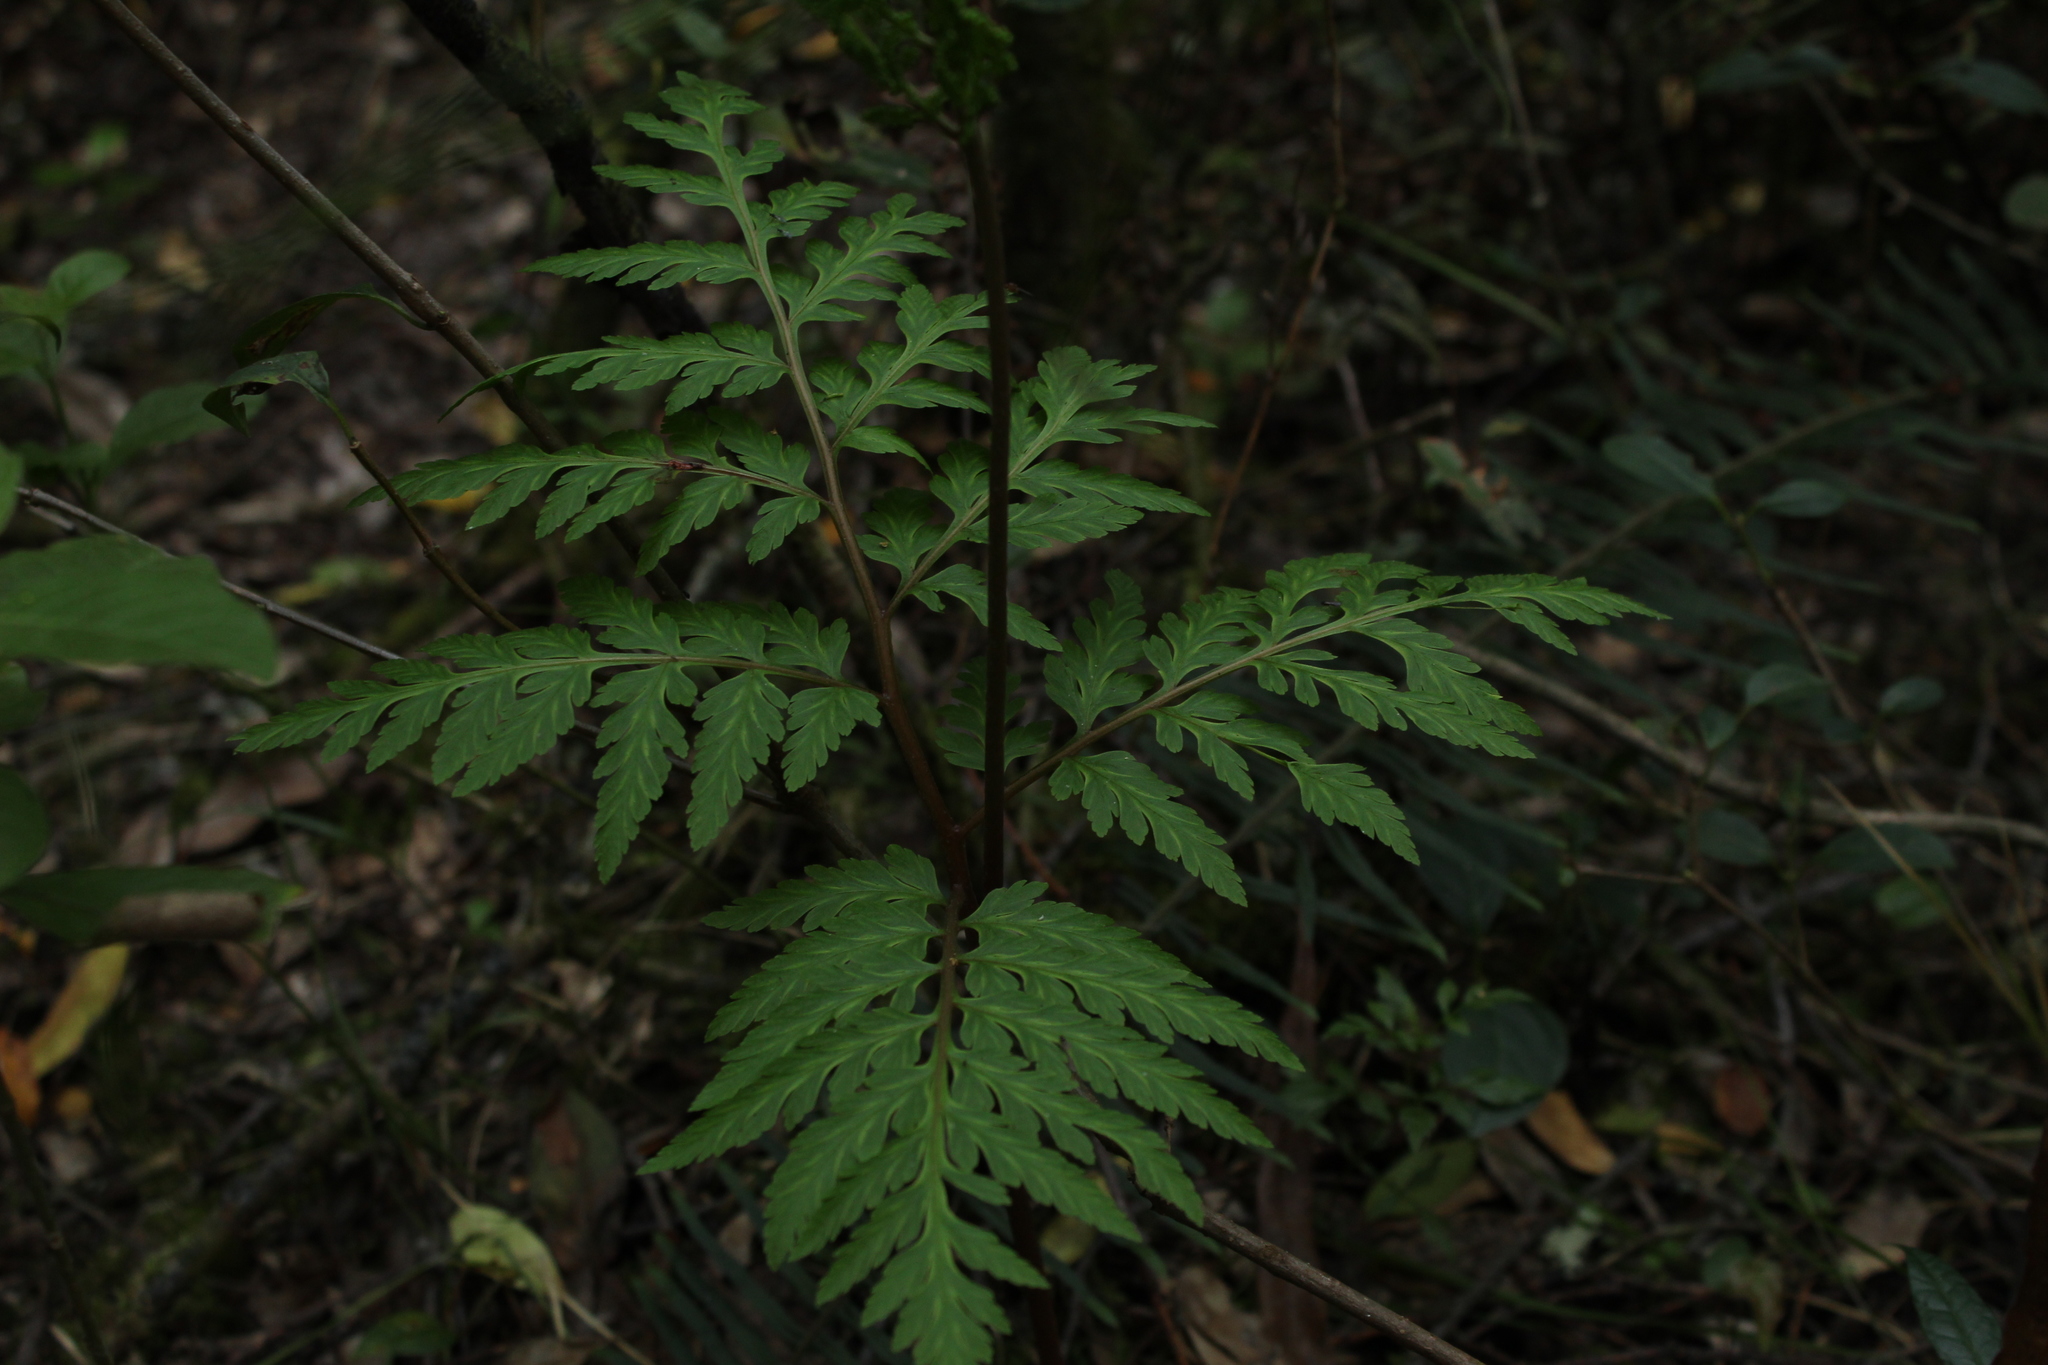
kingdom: Plantae
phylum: Tracheophyta
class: Polypodiopsida
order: Ophioglossales
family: Ophioglossaceae
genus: Botrypus
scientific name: Botrypus virginianus
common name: Common grapefern
